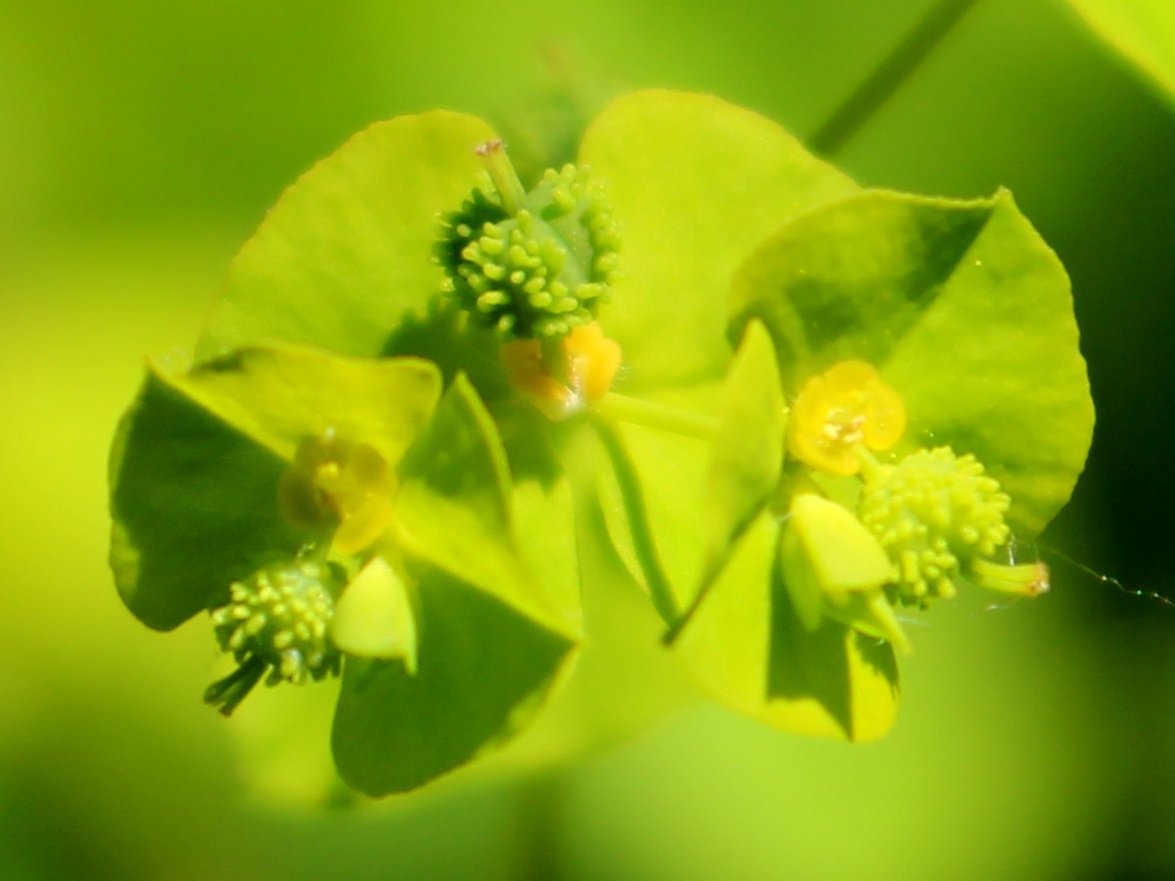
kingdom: Plantae
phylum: Tracheophyta
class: Magnoliopsida
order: Malpighiales
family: Euphorbiaceae
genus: Euphorbia
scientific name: Euphorbia stricta
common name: Upright spurge
